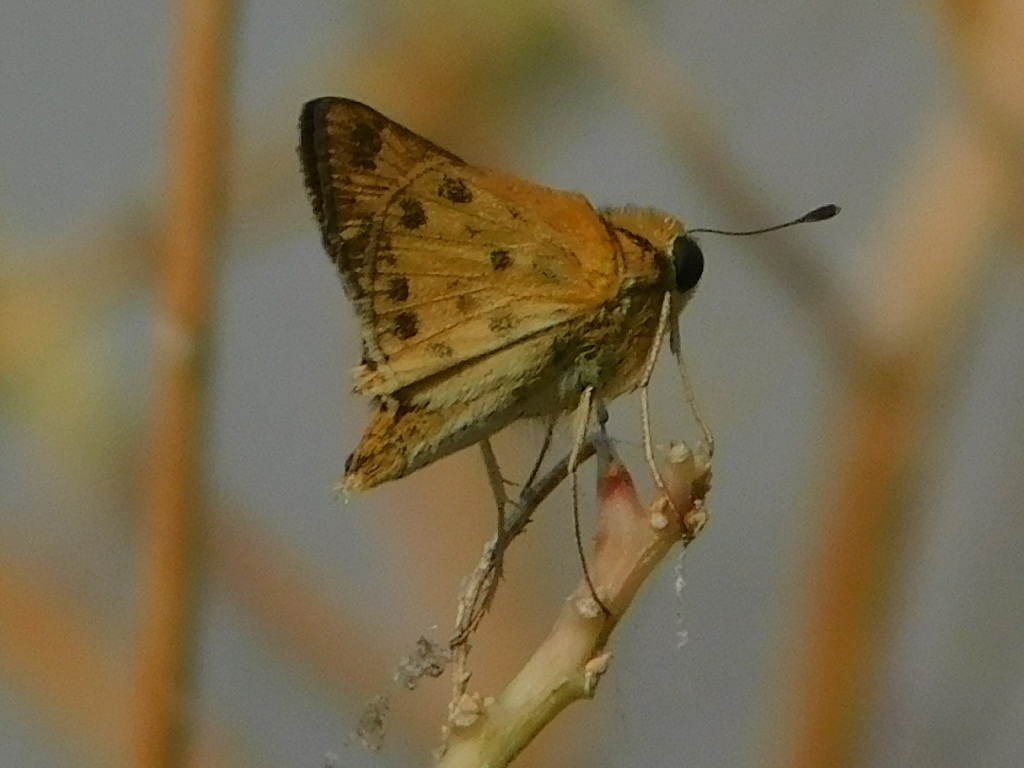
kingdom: Animalia
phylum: Arthropoda
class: Insecta
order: Lepidoptera
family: Hesperiidae
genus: Hylephila
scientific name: Hylephila phyleus
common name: Fiery skipper
